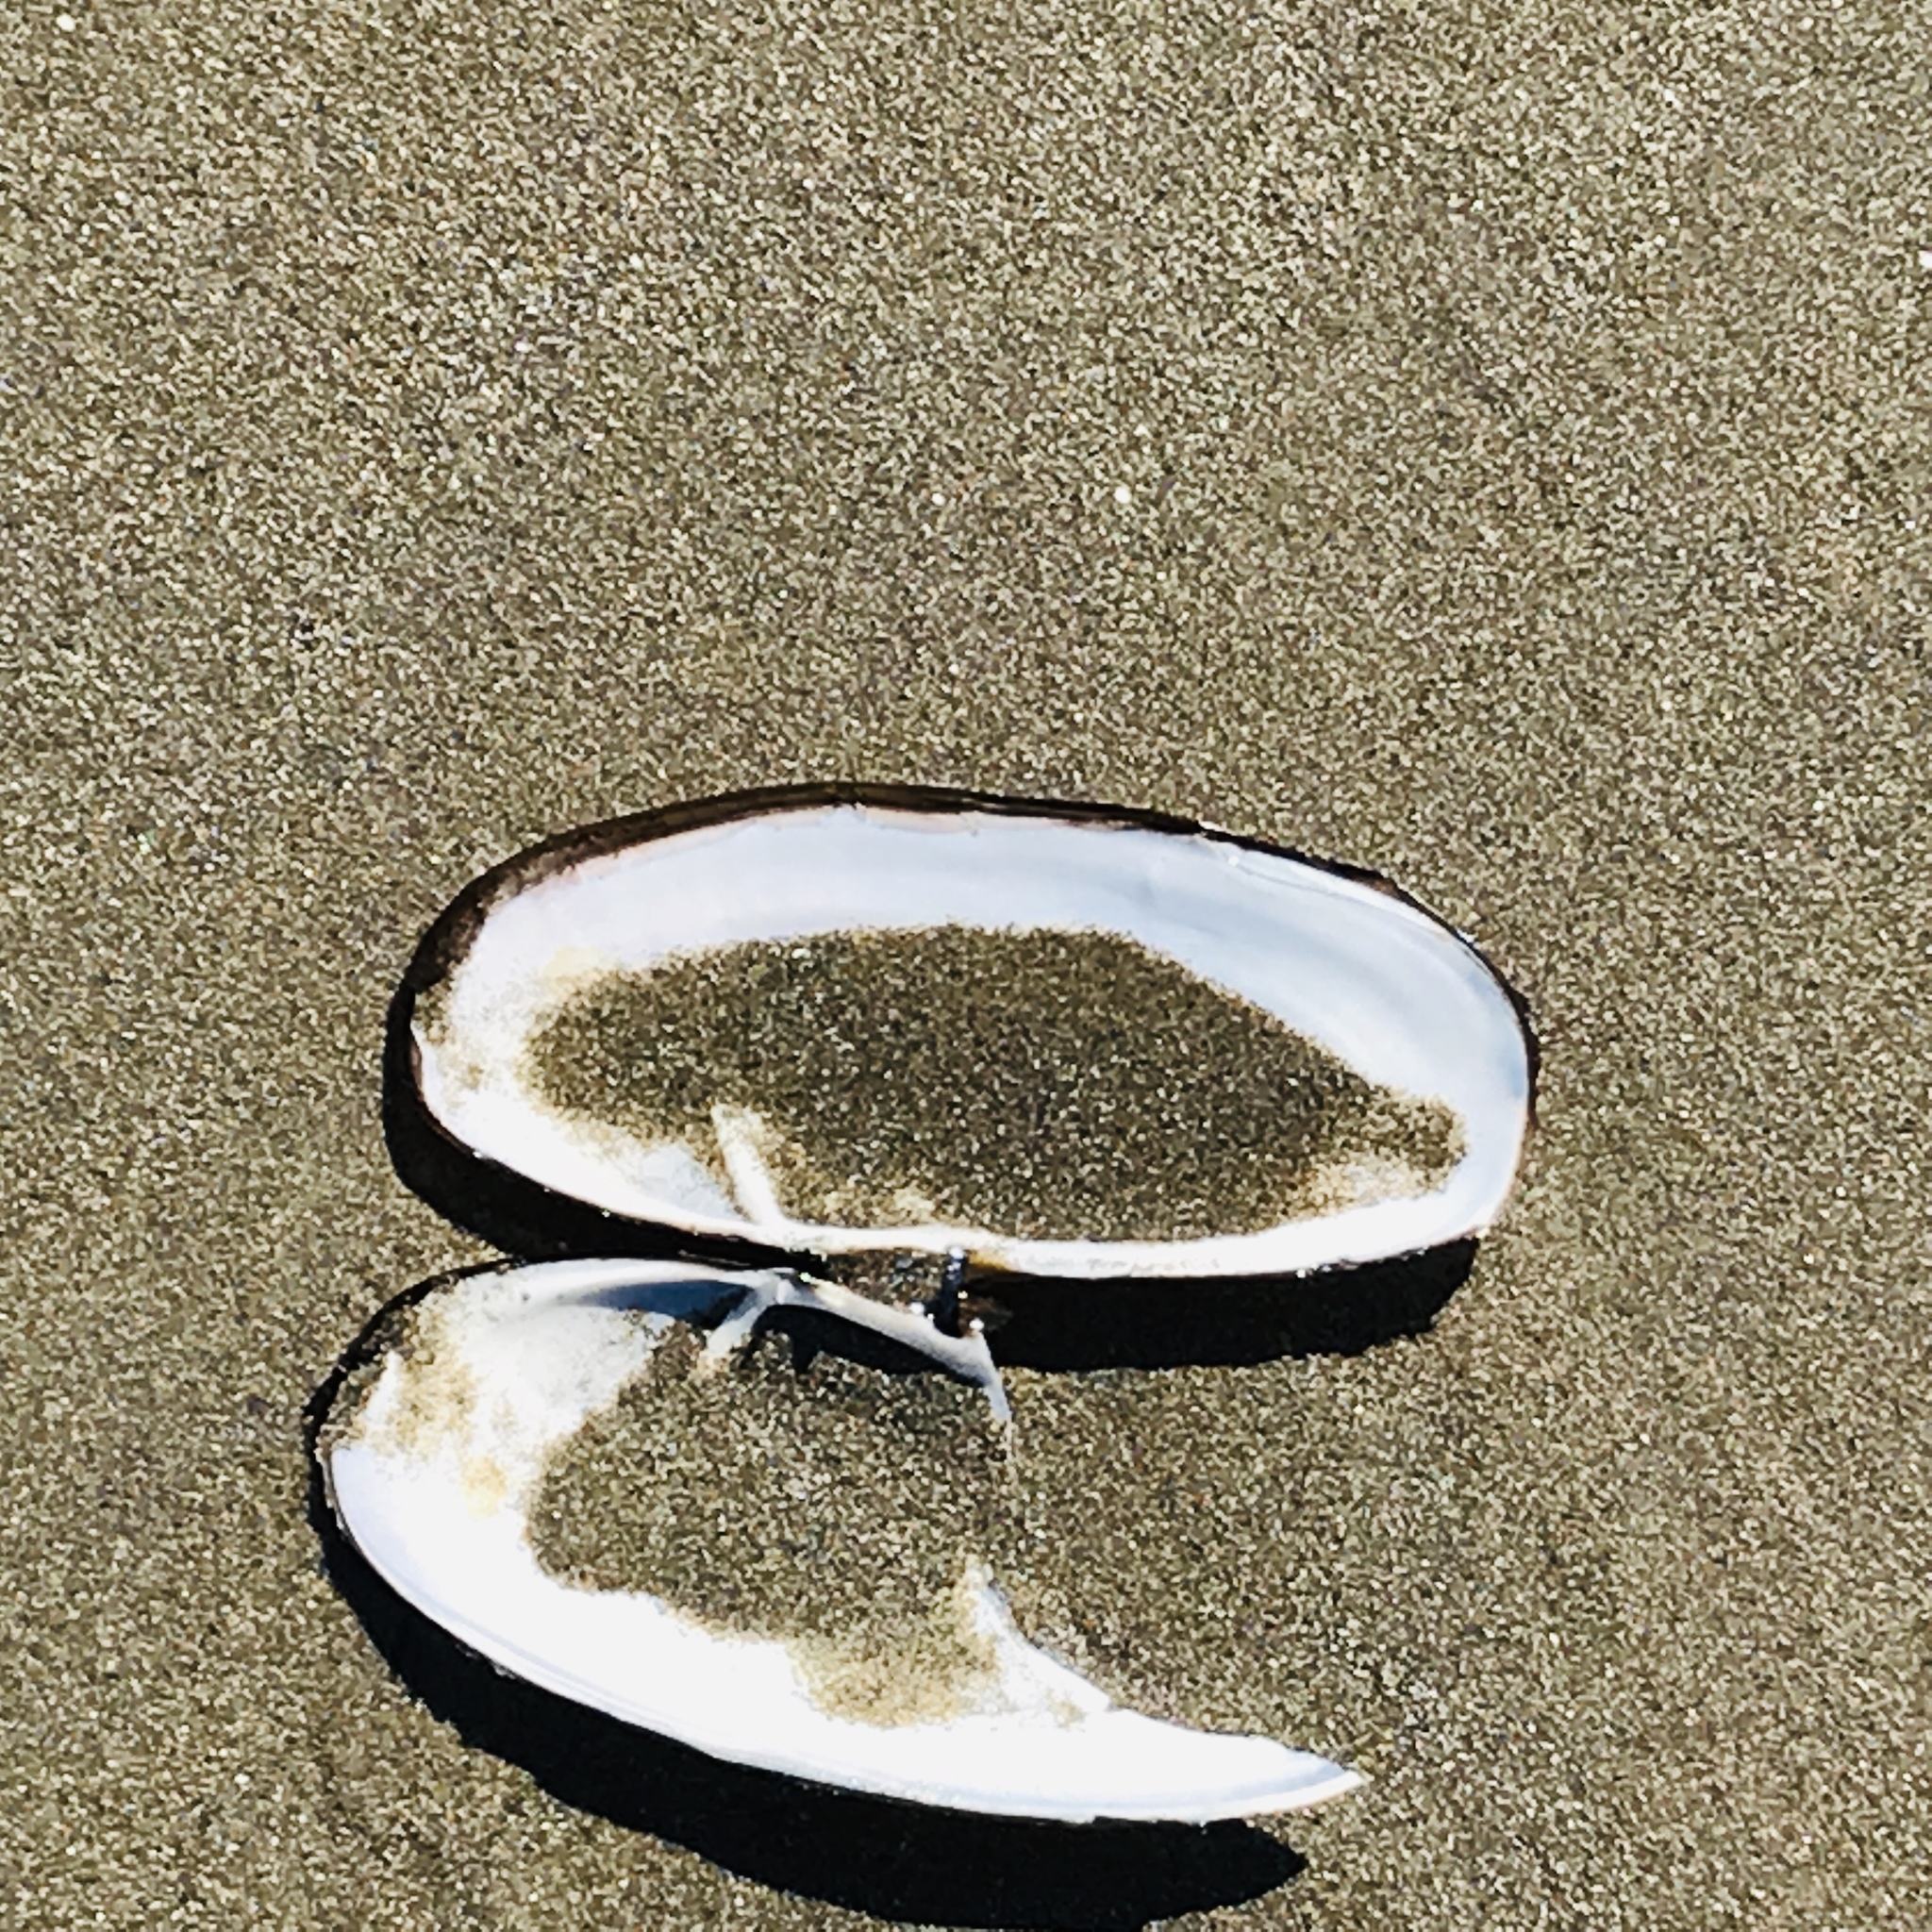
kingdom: Animalia
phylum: Mollusca
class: Bivalvia
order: Adapedonta
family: Pharidae
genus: Siliqua
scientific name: Siliqua patula
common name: Pacific razor clam
